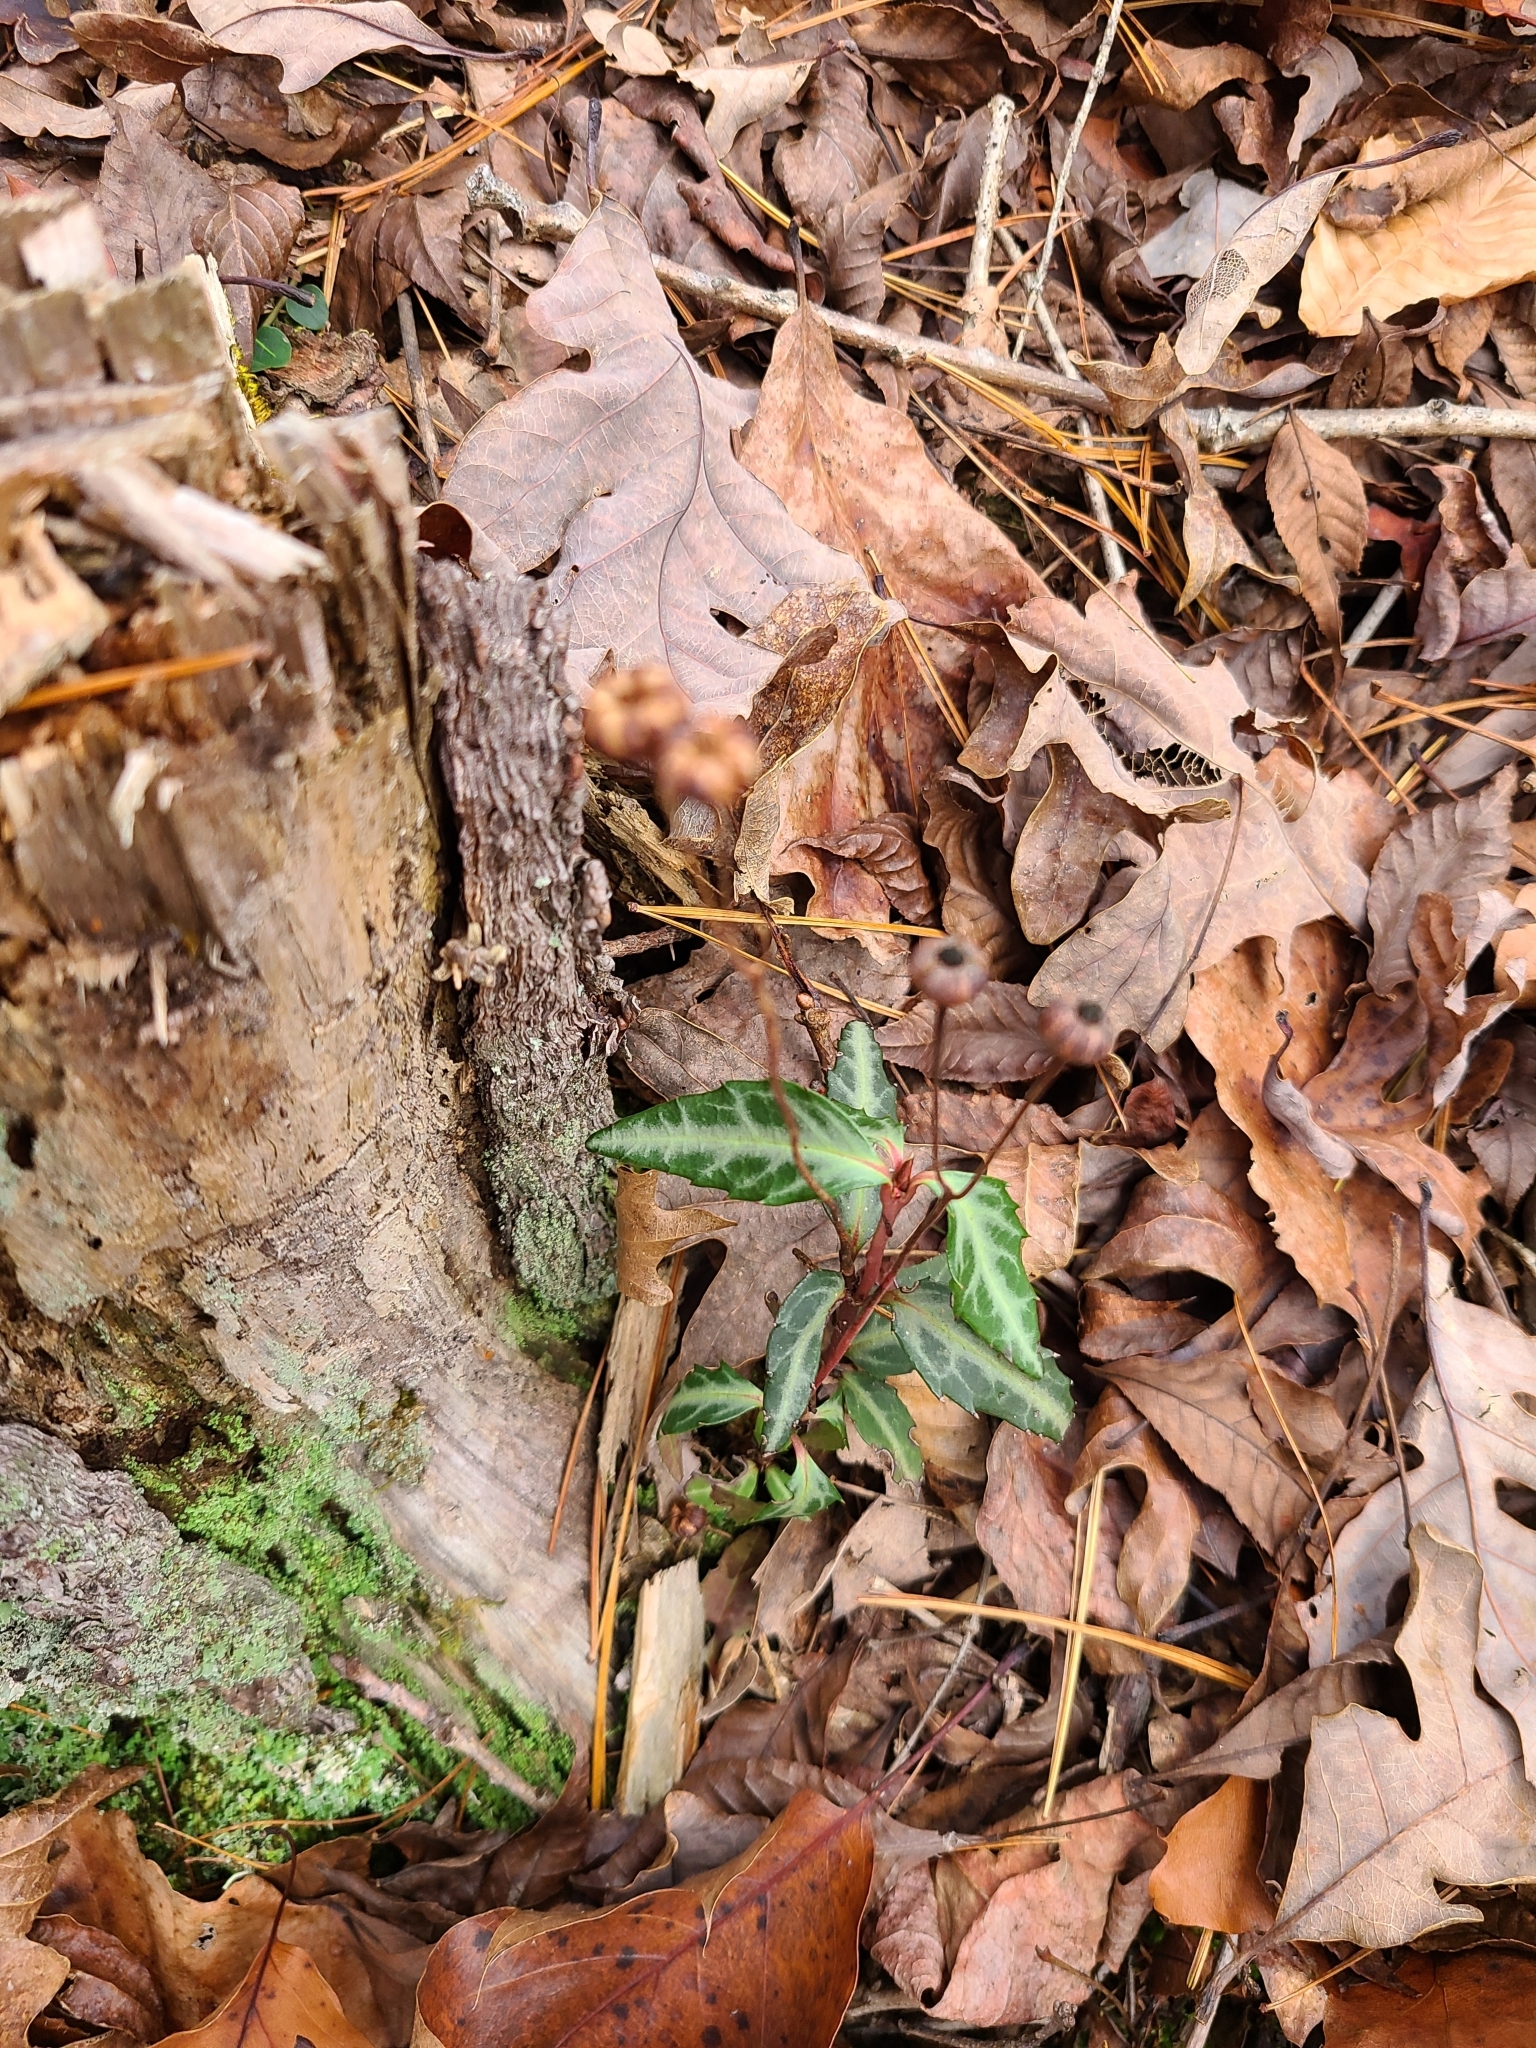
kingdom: Plantae
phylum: Tracheophyta
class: Magnoliopsida
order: Ericales
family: Ericaceae
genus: Chimaphila
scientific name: Chimaphila maculata
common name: Spotted pipsissewa
